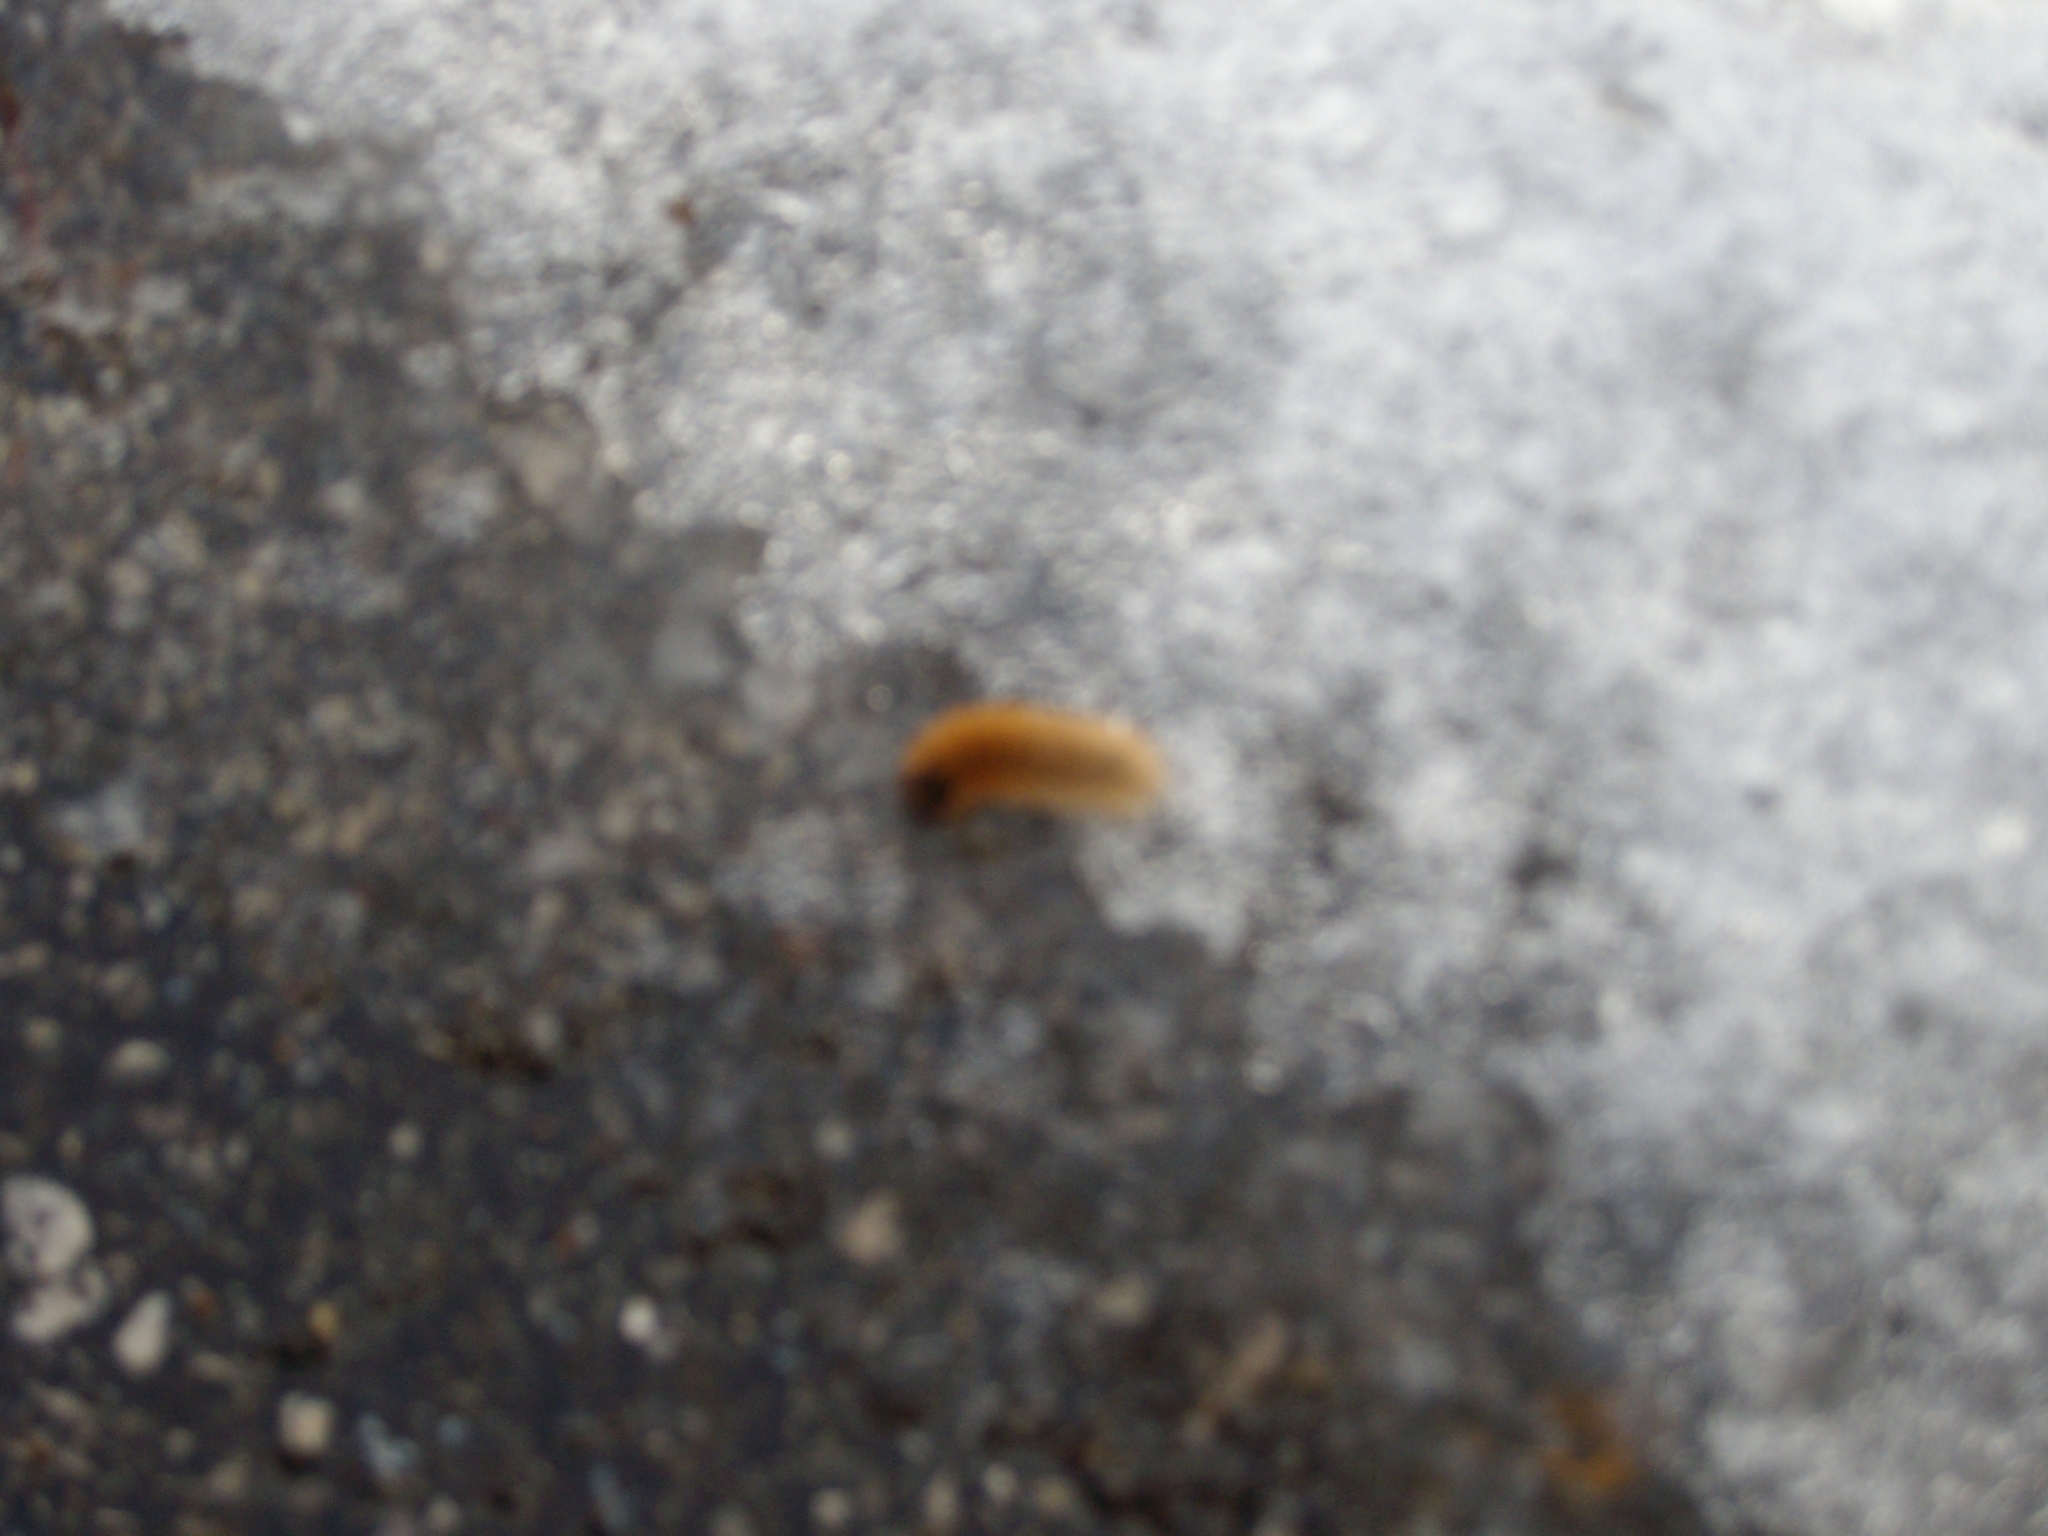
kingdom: Animalia
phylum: Arthropoda
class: Insecta
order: Lepidoptera
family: Erebidae
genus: Arctiinae
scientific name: Arctiinae
